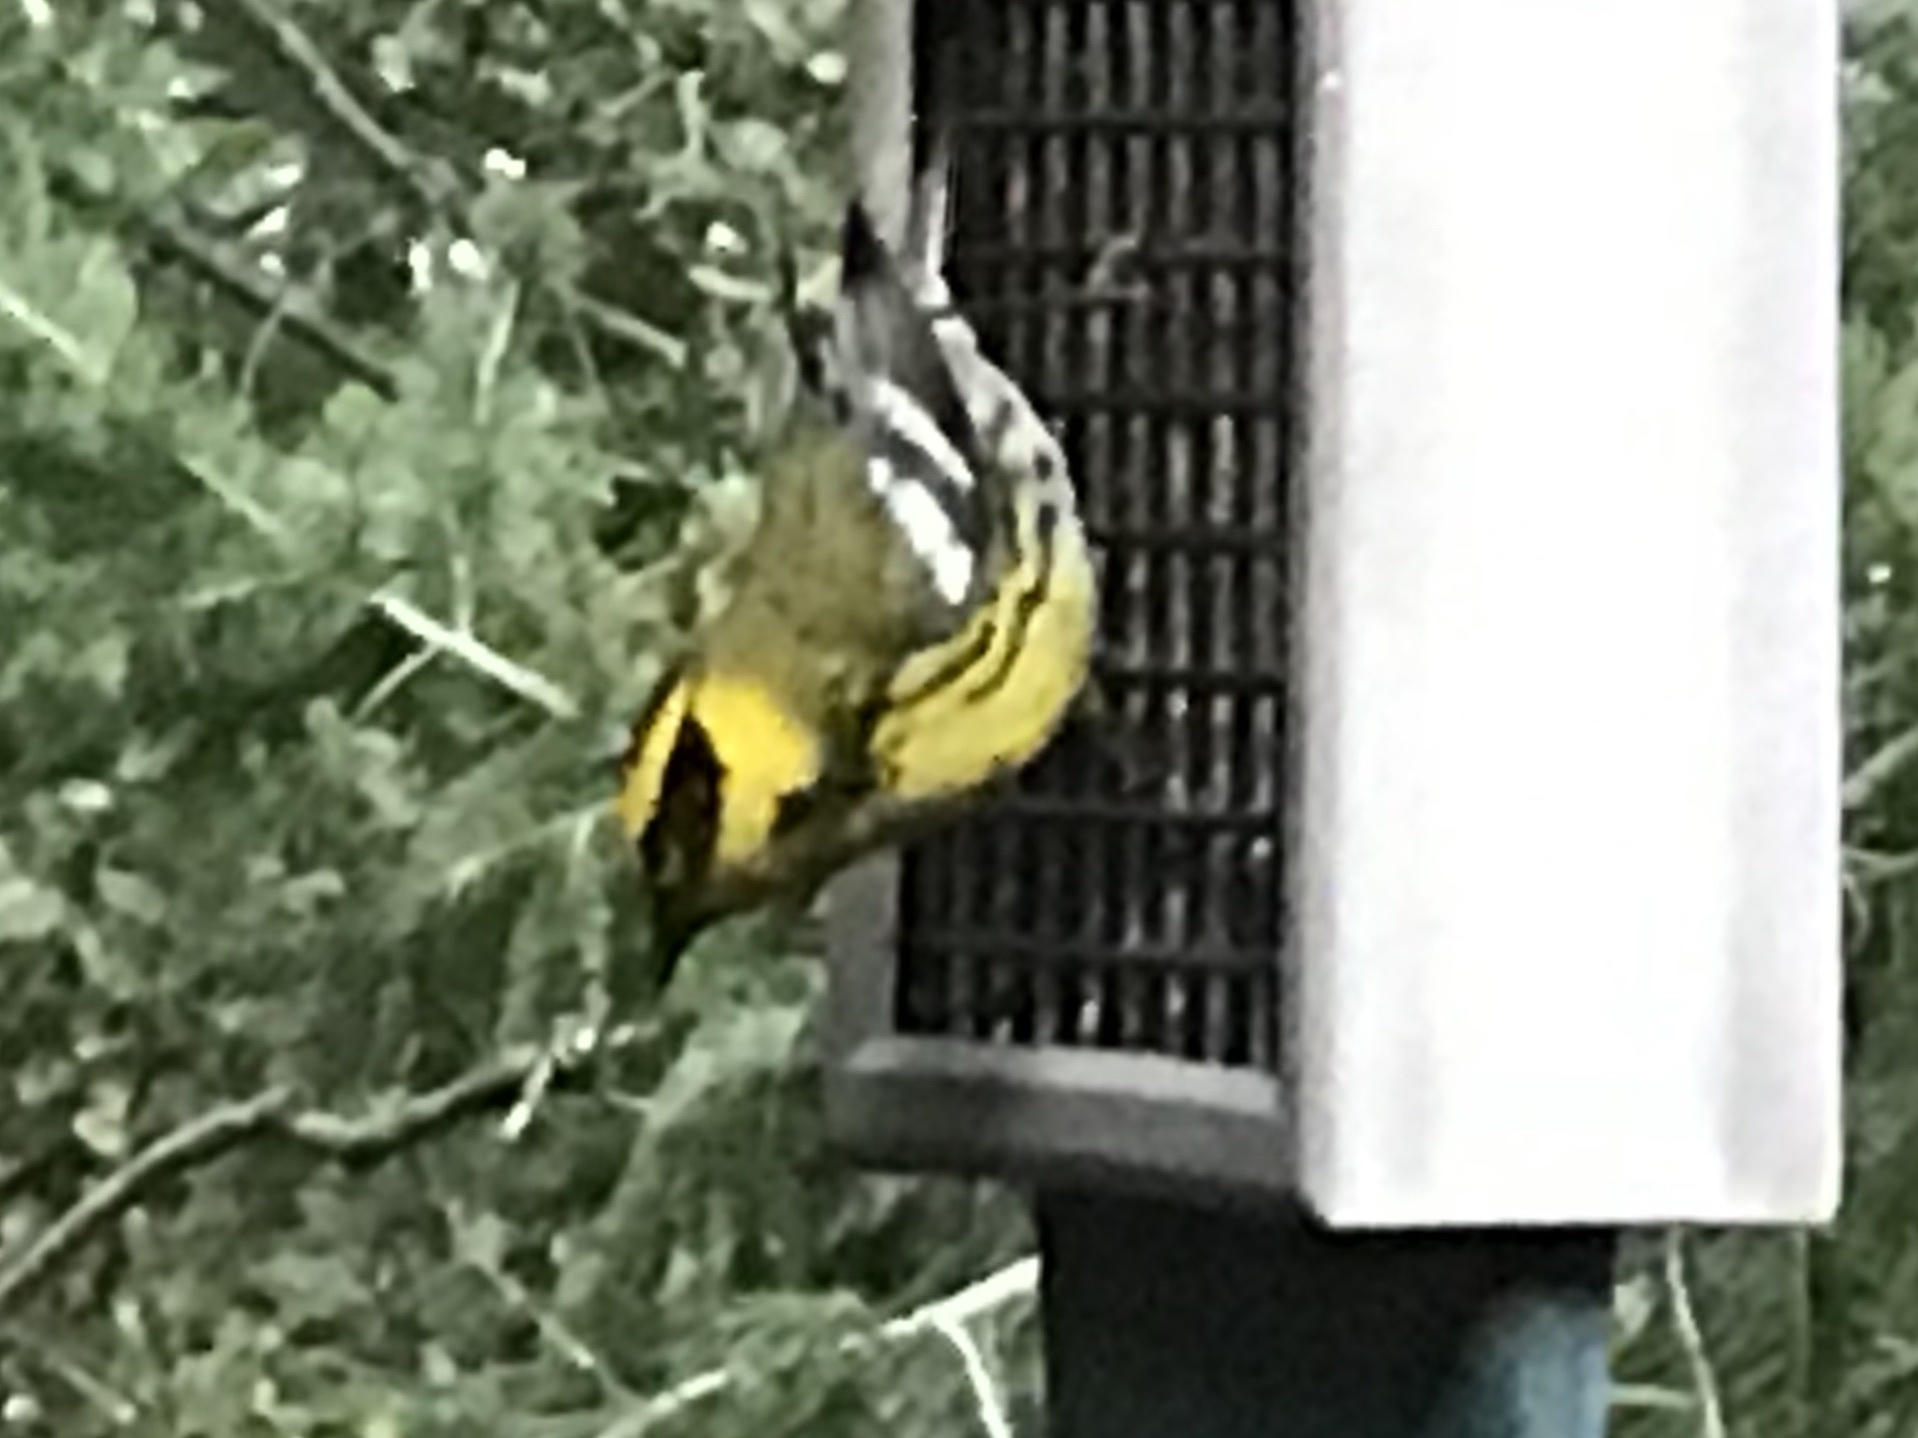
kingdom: Animalia
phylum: Chordata
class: Aves
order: Passeriformes
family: Parulidae
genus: Setophaga
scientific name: Setophaga townsendi
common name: Townsend's warbler
